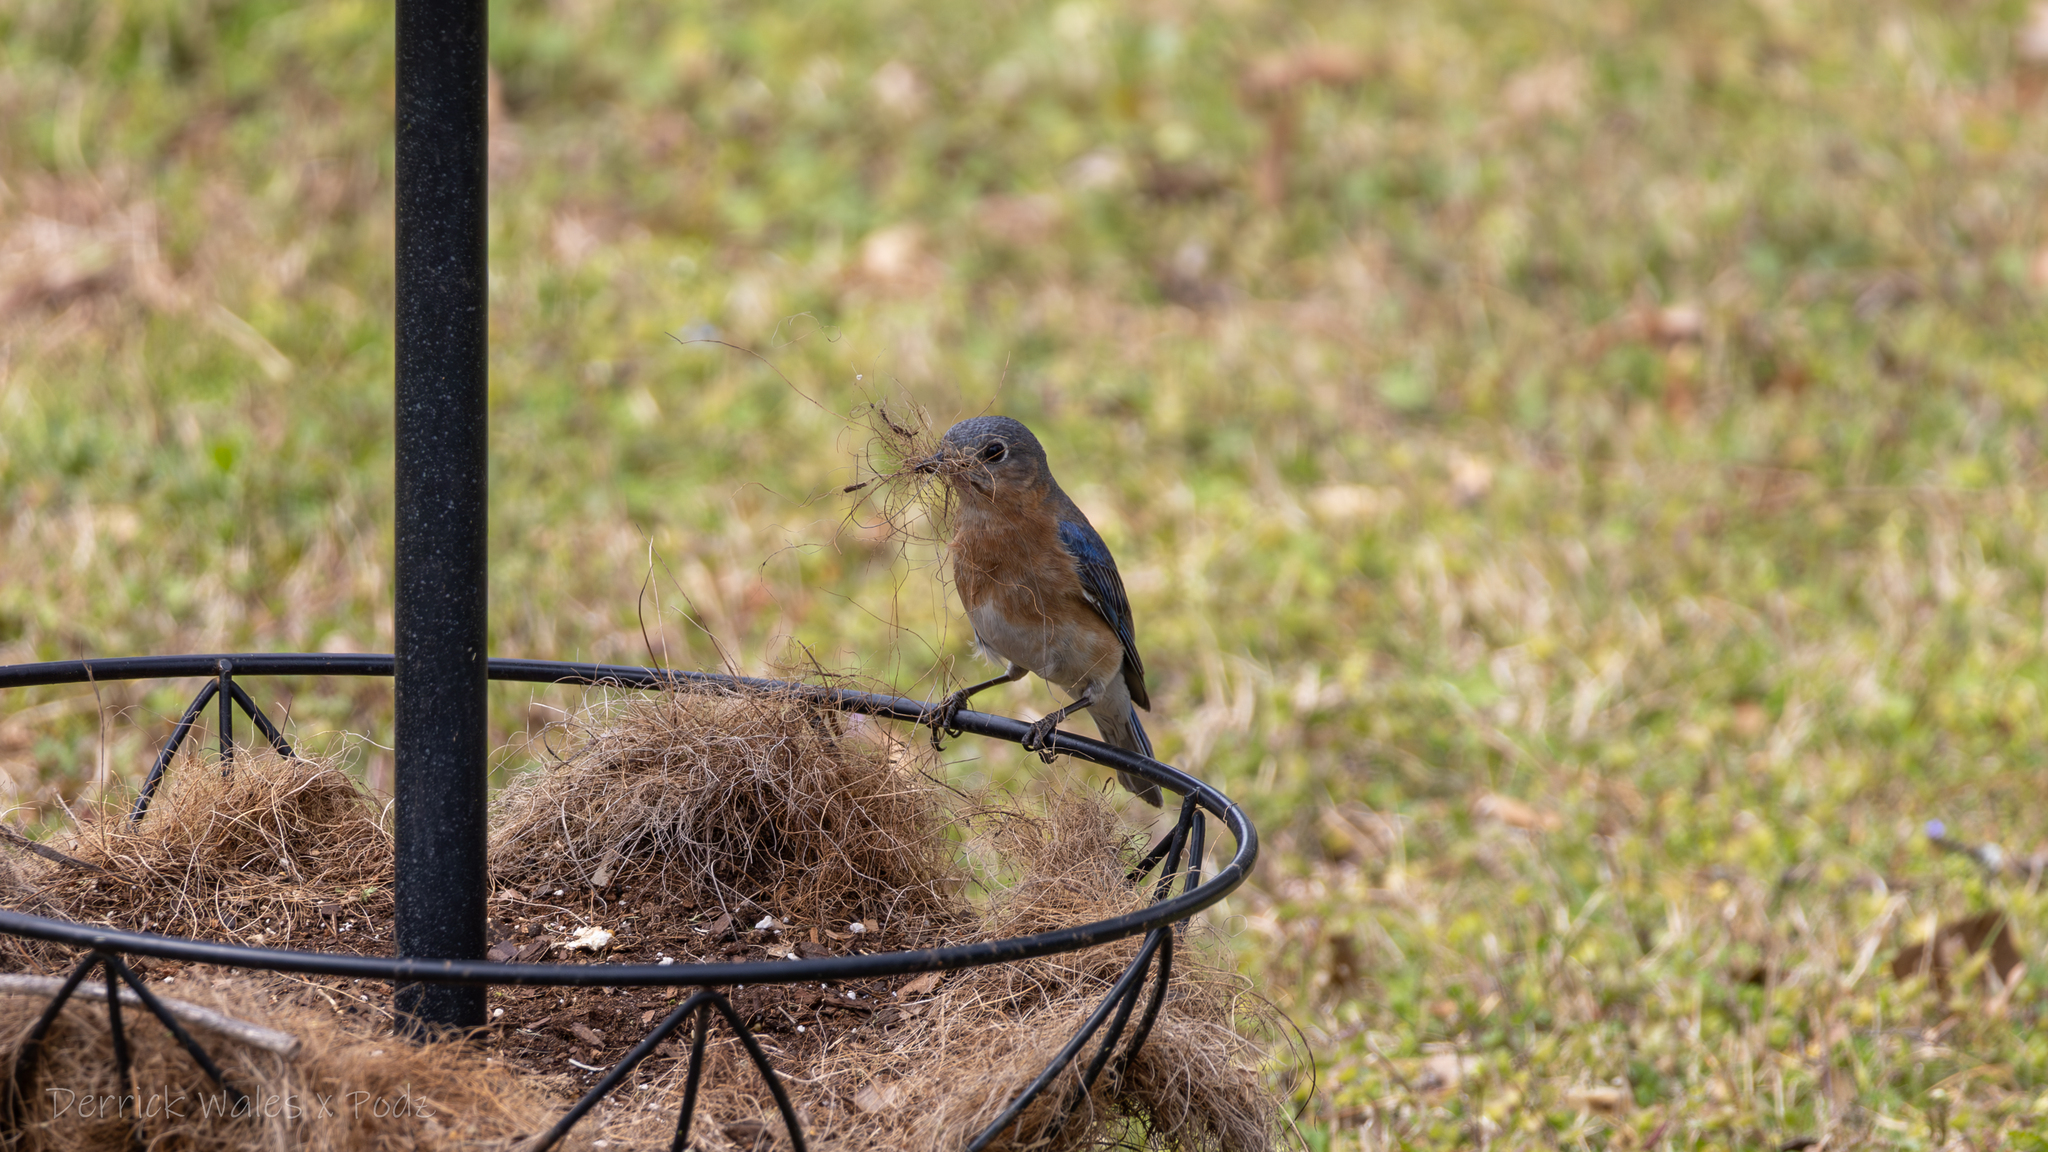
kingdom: Animalia
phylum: Chordata
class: Aves
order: Passeriformes
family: Turdidae
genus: Sialia
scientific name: Sialia sialis
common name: Eastern bluebird
